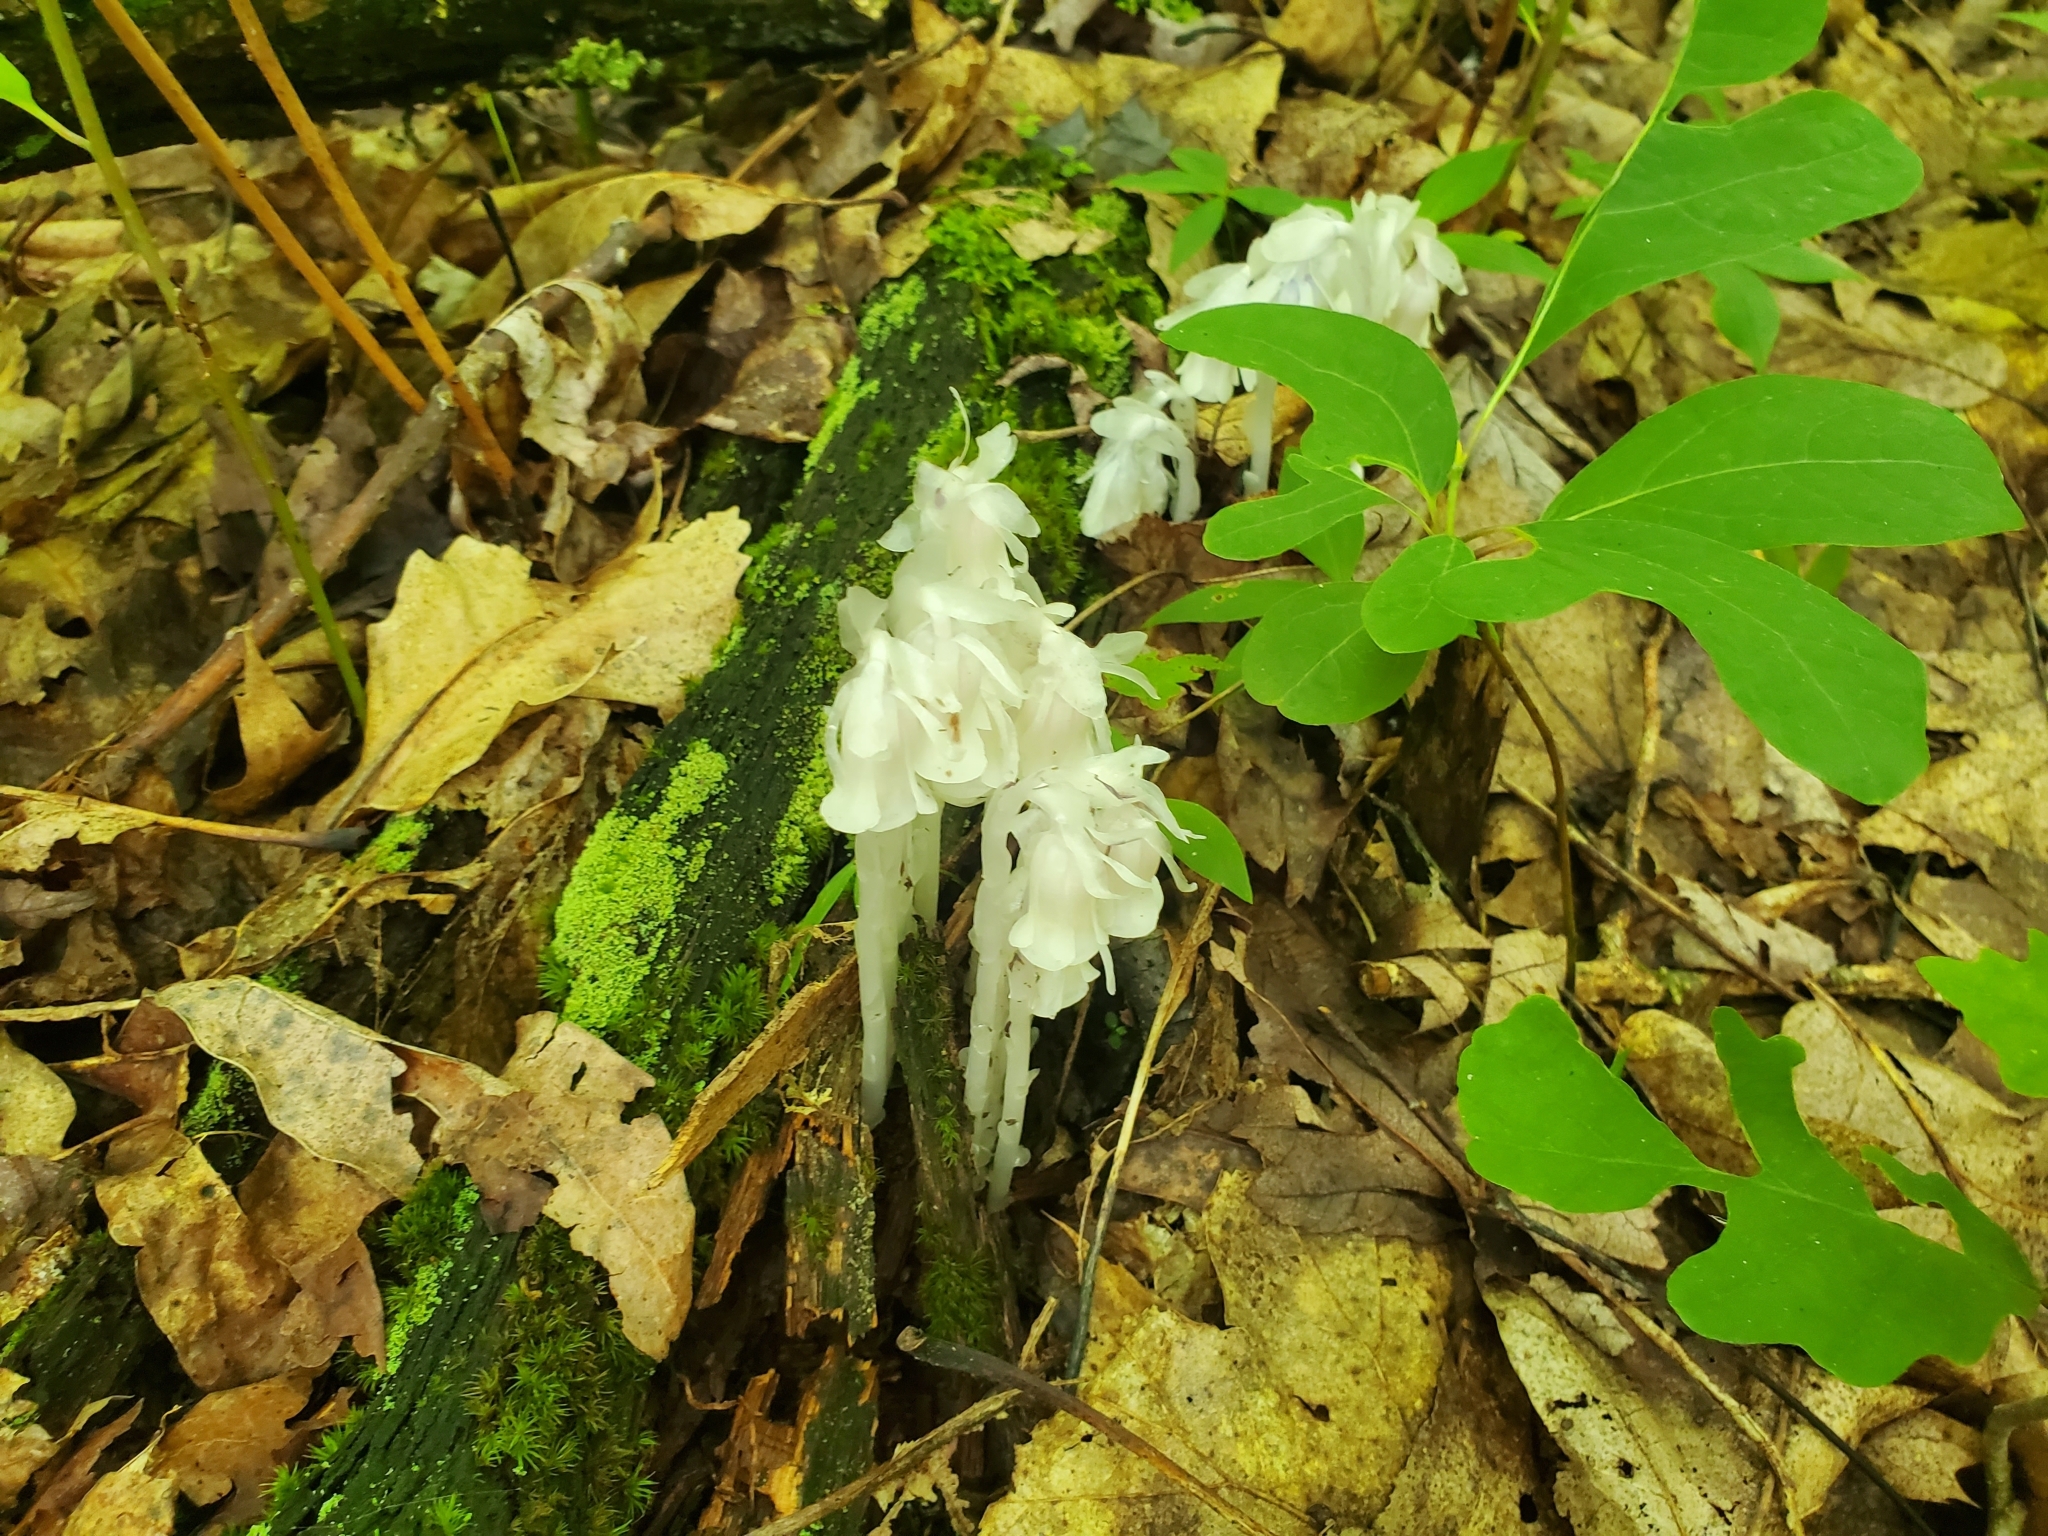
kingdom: Plantae
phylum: Tracheophyta
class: Magnoliopsida
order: Ericales
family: Ericaceae
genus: Monotropa
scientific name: Monotropa uniflora
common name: Convulsion root
